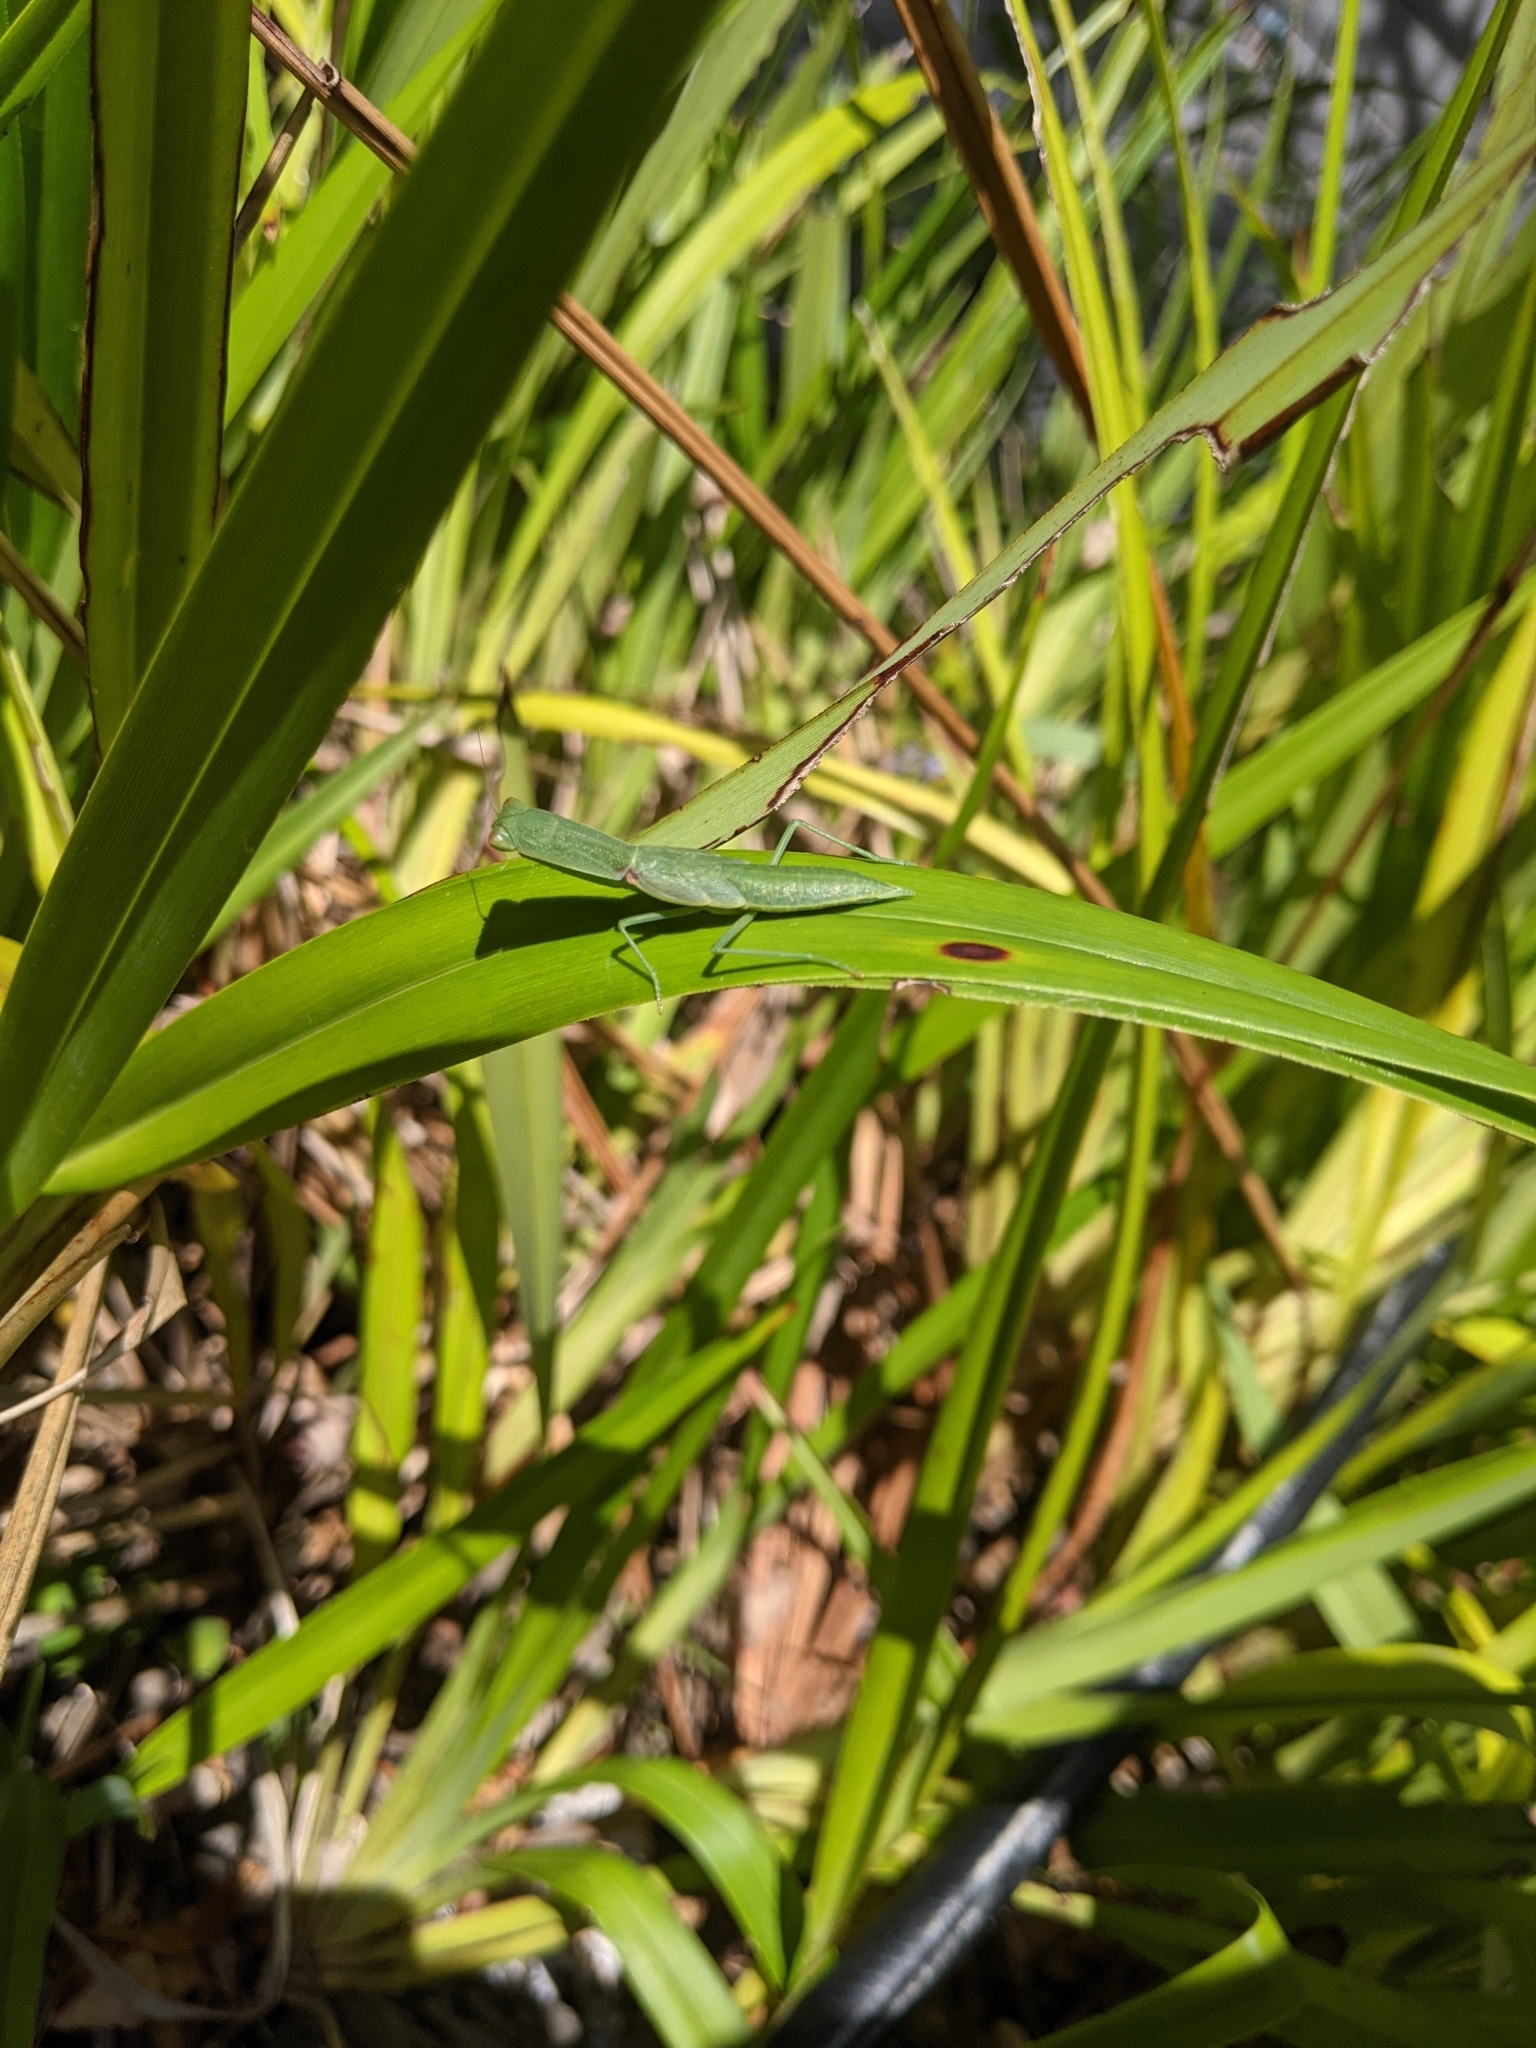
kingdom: Animalia
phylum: Arthropoda
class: Insecta
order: Mantodea
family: Mantidae
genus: Orthodera
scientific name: Orthodera ministralis
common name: Mantis
